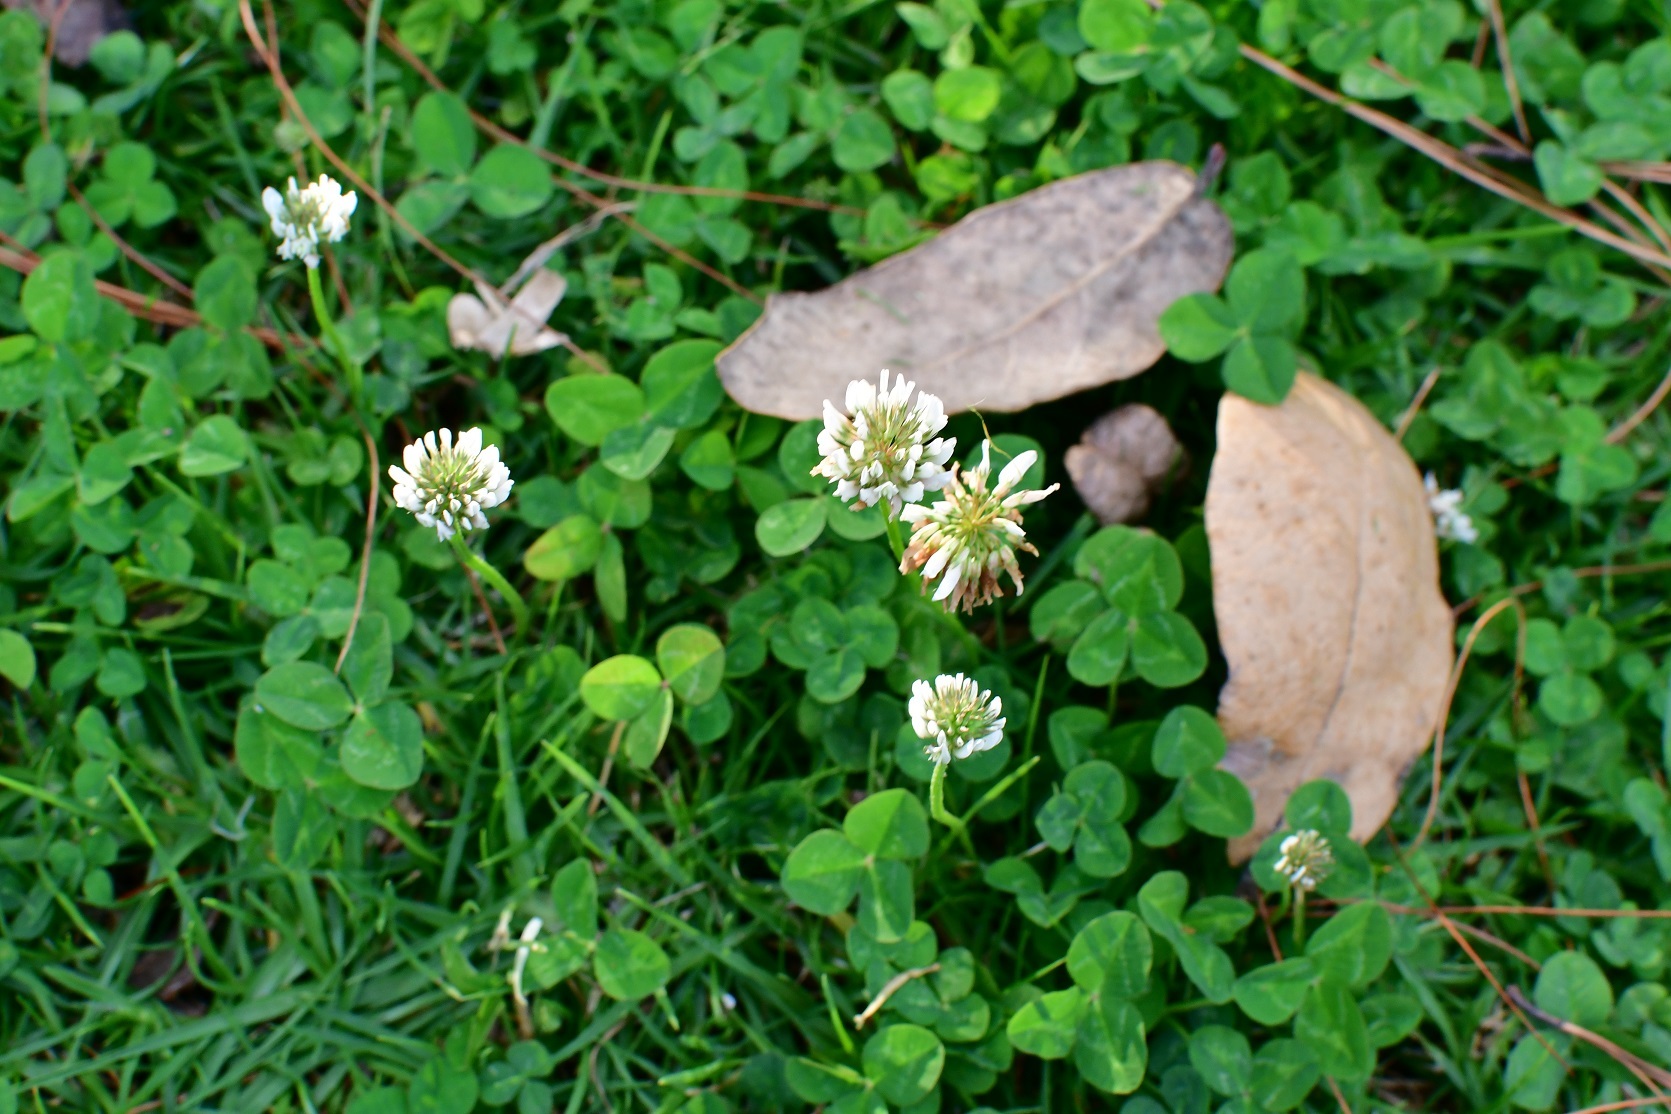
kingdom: Plantae
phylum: Tracheophyta
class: Magnoliopsida
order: Fabales
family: Fabaceae
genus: Trifolium
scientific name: Trifolium repens
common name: White clover
